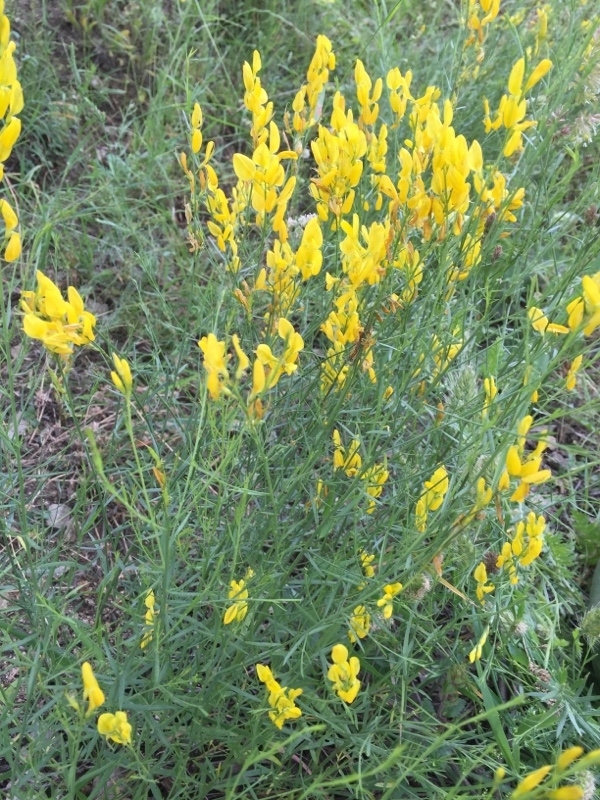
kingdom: Plantae
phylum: Tracheophyta
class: Magnoliopsida
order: Fabales
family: Fabaceae
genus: Genista
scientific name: Genista dracunculoides
